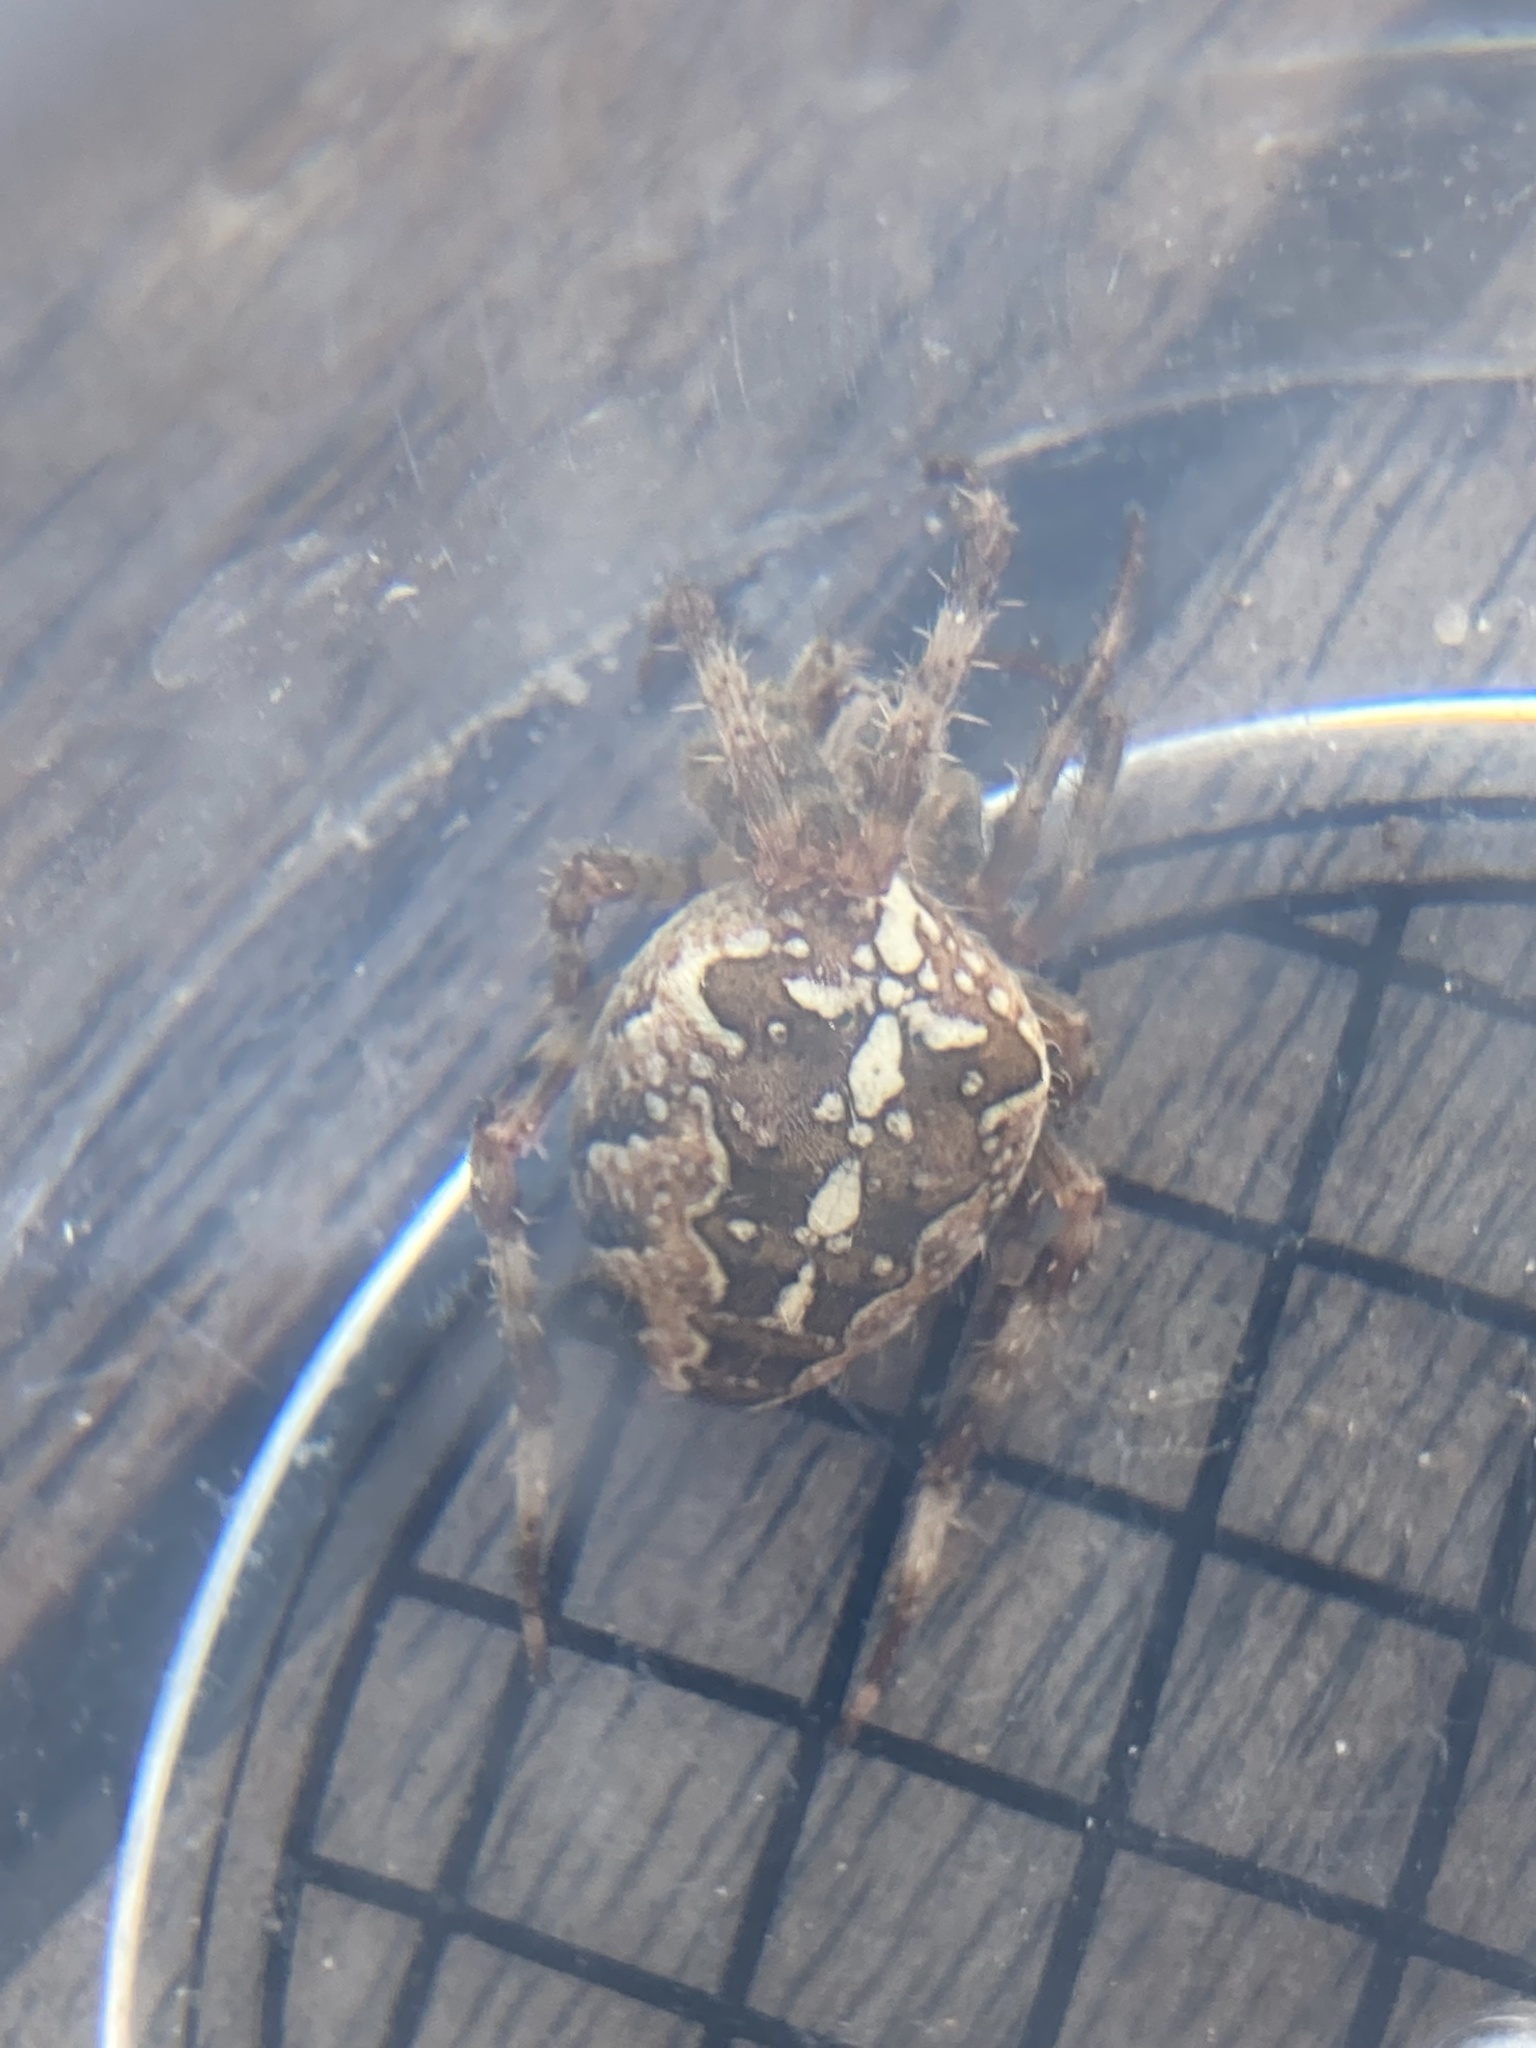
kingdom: Animalia
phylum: Arthropoda
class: Arachnida
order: Araneae
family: Araneidae
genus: Araneus
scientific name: Araneus diadematus
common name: Cross orbweaver
